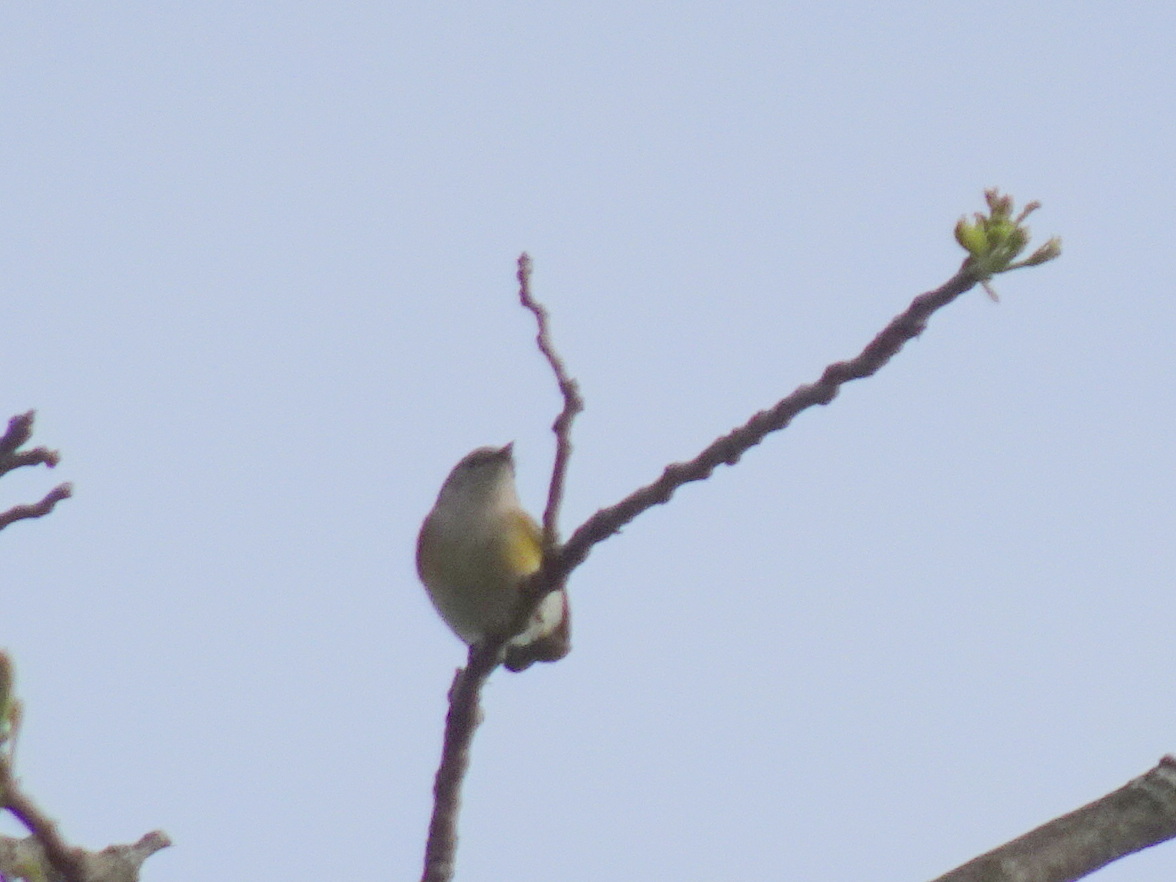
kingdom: Animalia
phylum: Chordata
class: Aves
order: Passeriformes
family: Parulidae
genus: Setophaga
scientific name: Setophaga ruticilla
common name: American redstart
